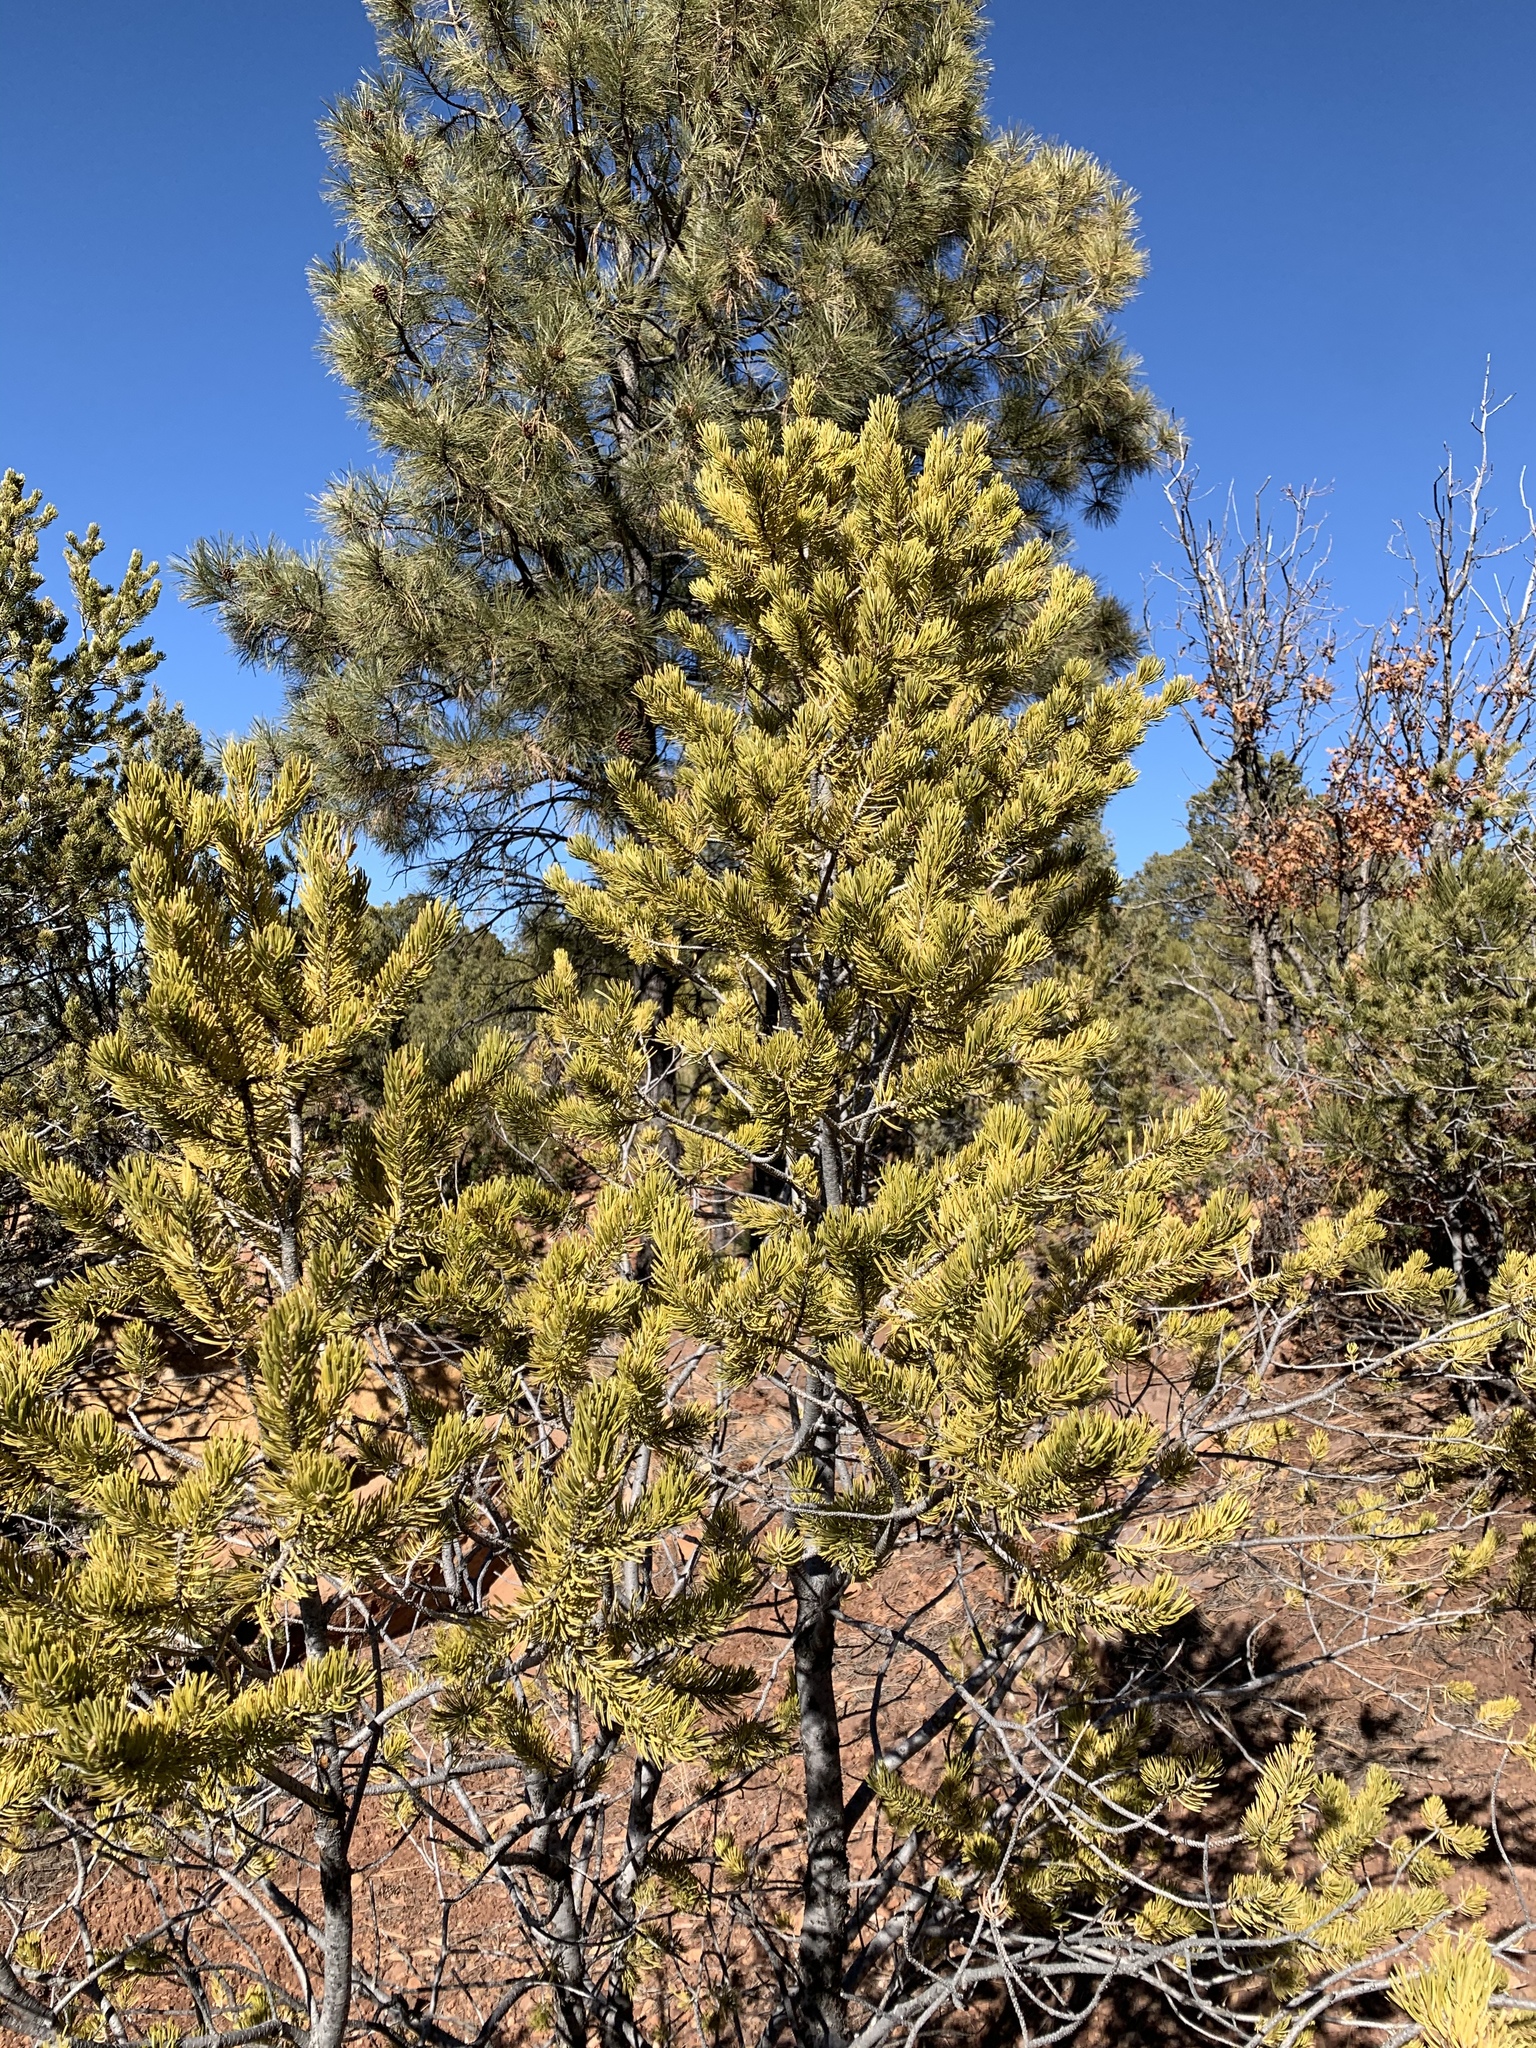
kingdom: Plantae
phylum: Tracheophyta
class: Pinopsida
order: Pinales
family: Pinaceae
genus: Pinus
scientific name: Pinus edulis
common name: Colorado pinyon
